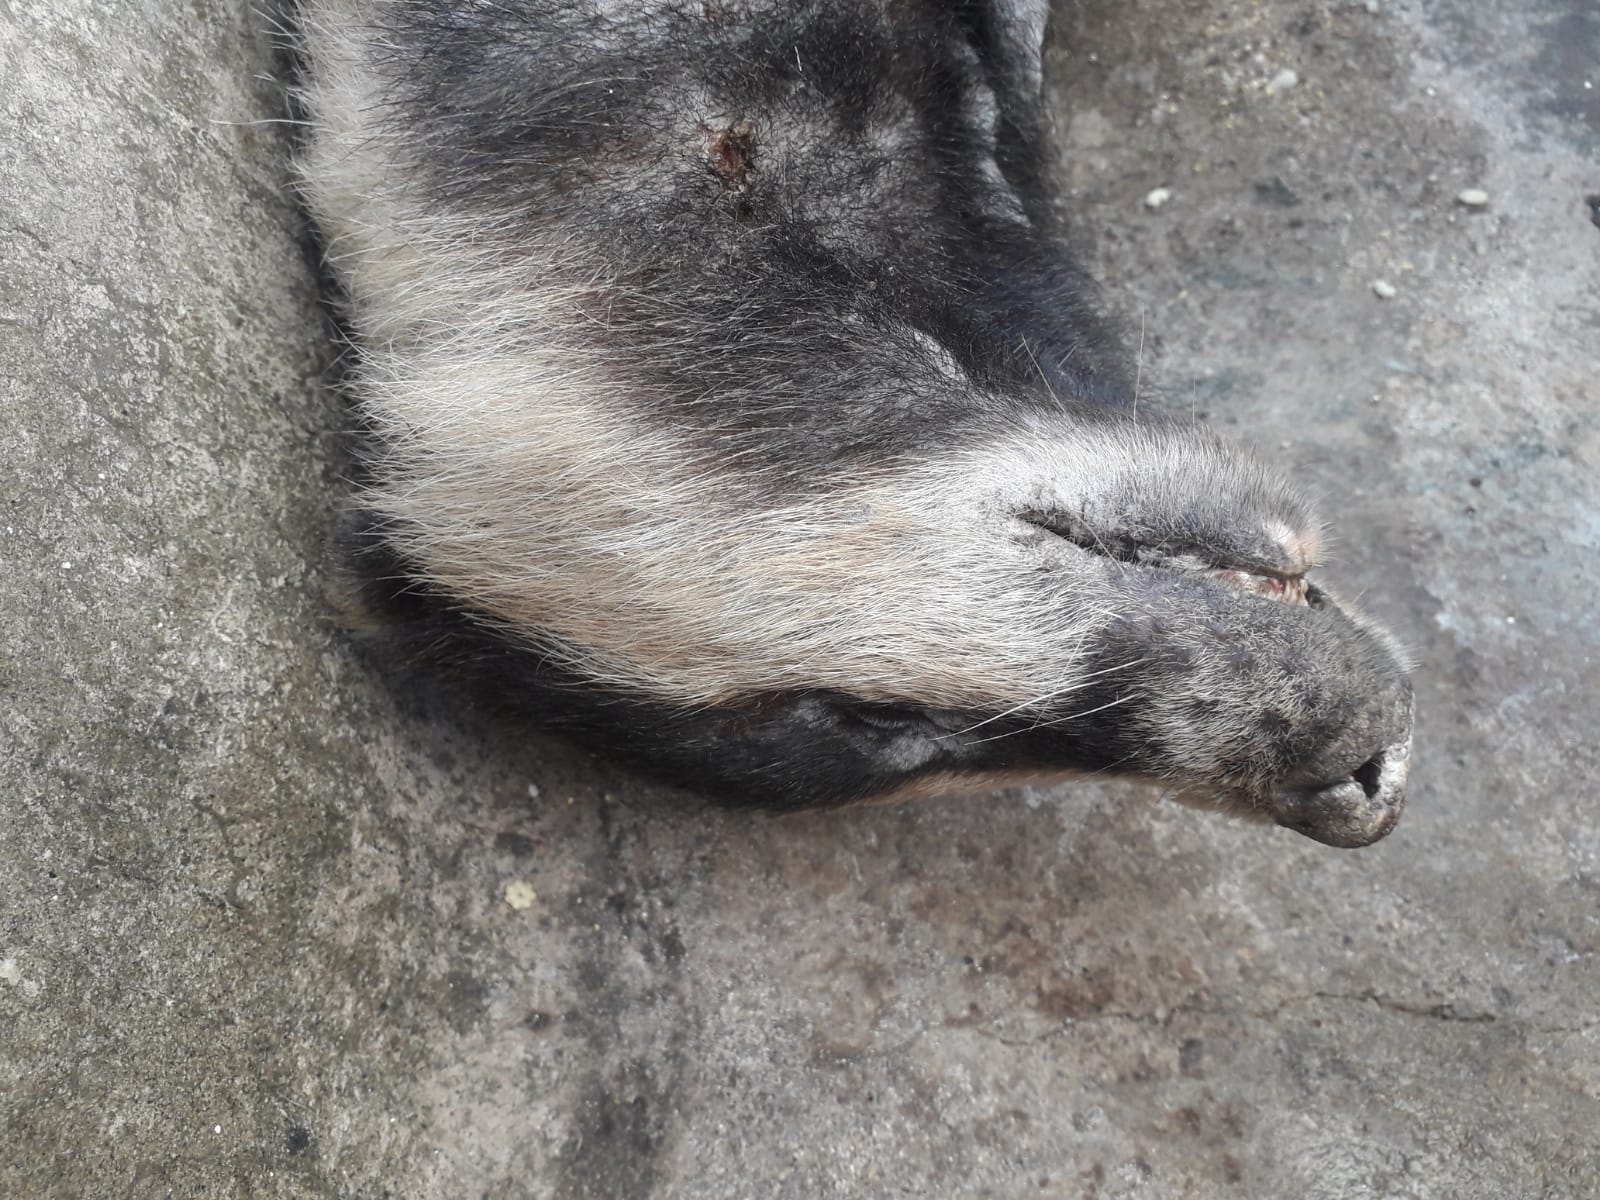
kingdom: Animalia
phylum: Chordata
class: Mammalia
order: Carnivora
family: Mustelidae
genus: Meles
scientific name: Meles meles
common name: Eurasian badger
